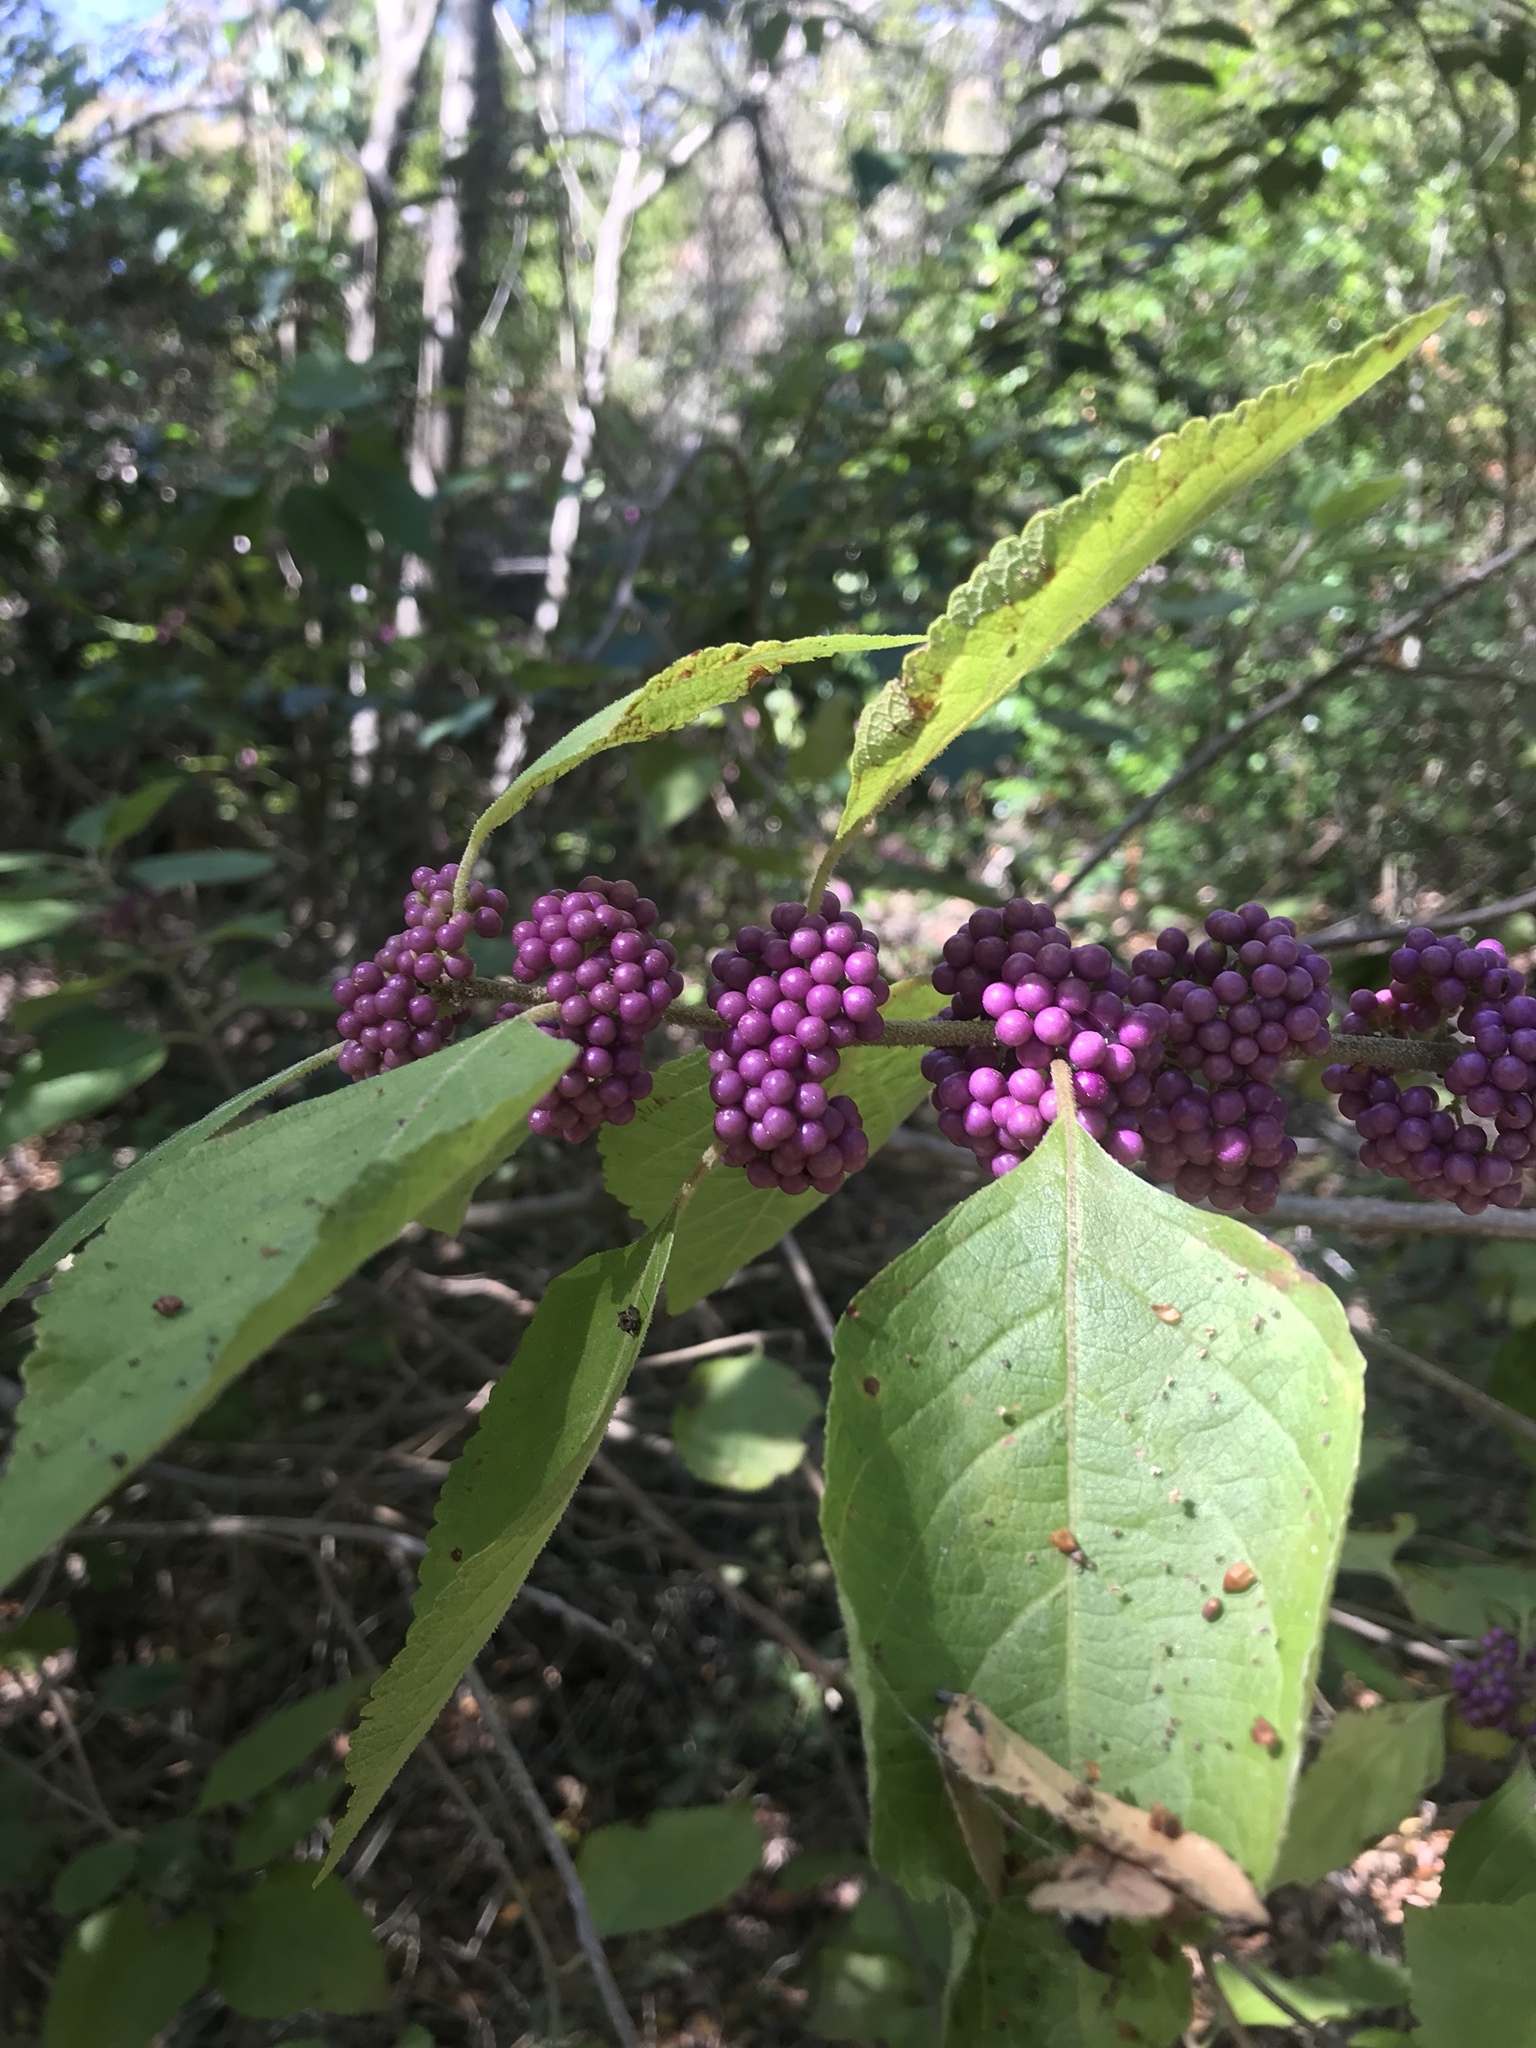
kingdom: Plantae
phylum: Tracheophyta
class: Magnoliopsida
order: Lamiales
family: Lamiaceae
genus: Callicarpa
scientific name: Callicarpa americana
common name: American beautyberry
